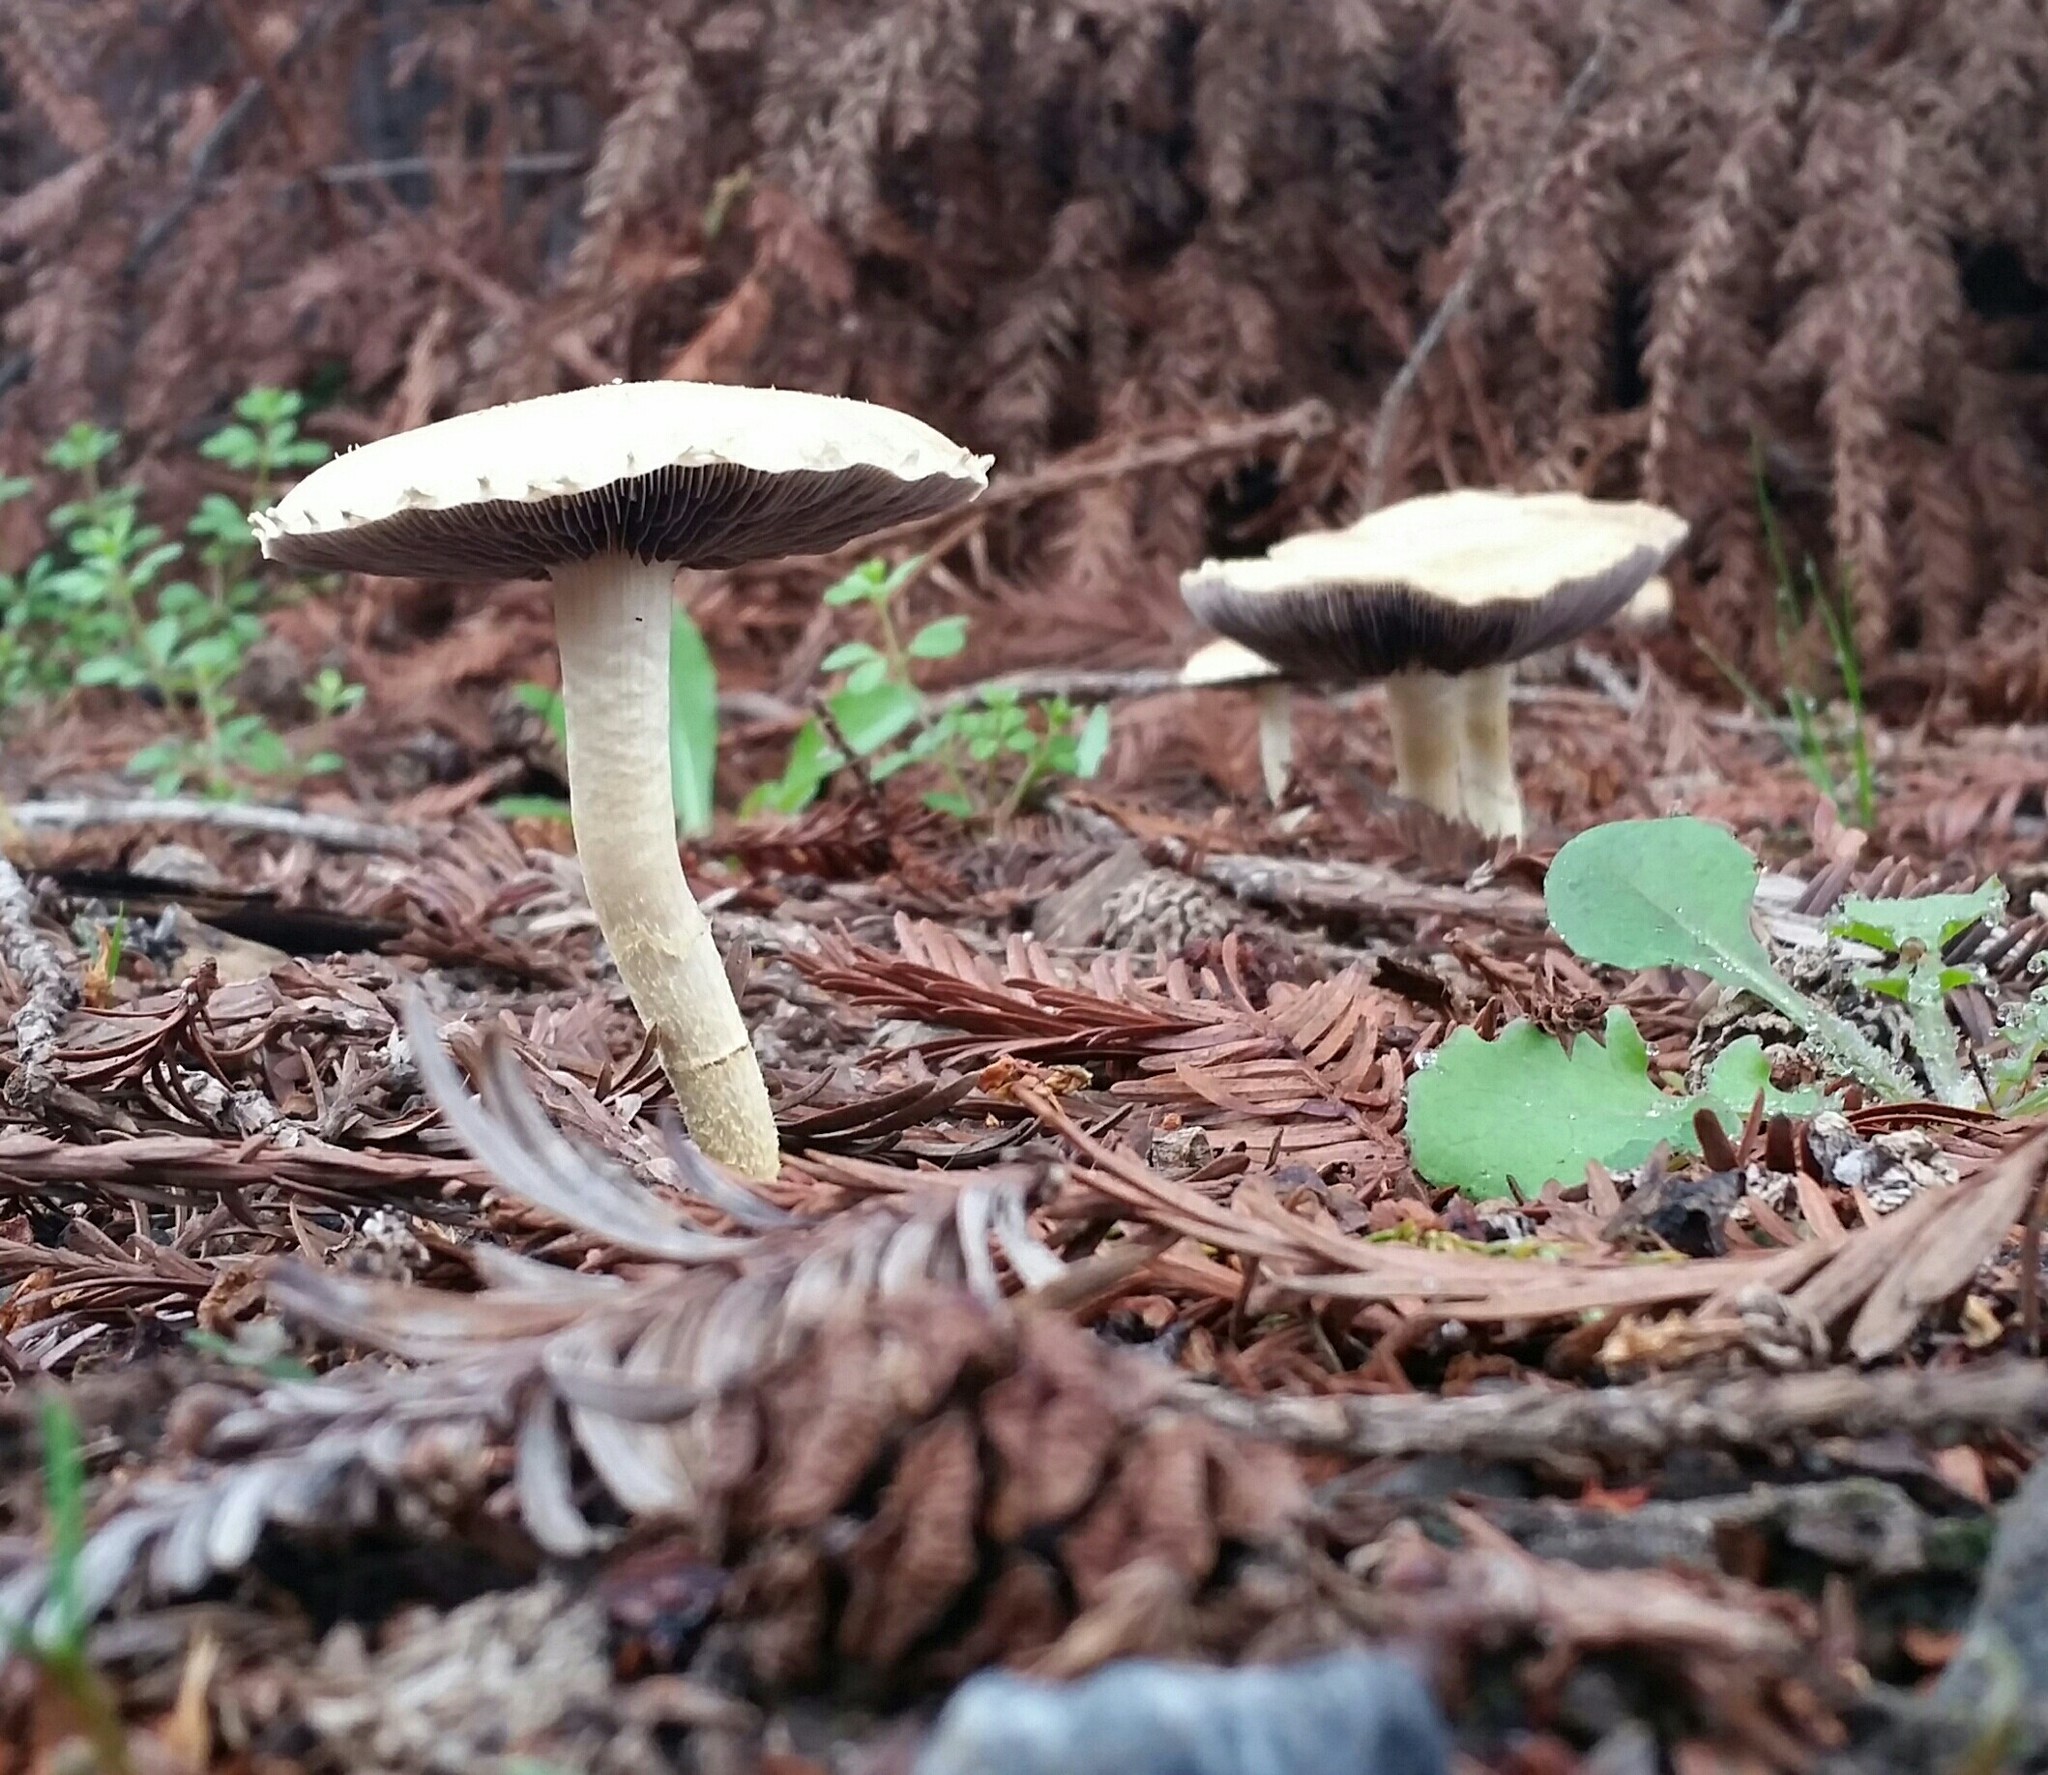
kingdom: Fungi
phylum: Basidiomycota
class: Agaricomycetes
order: Agaricales
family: Strophariaceae
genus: Leratiomyces
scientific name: Leratiomyces percevalii
